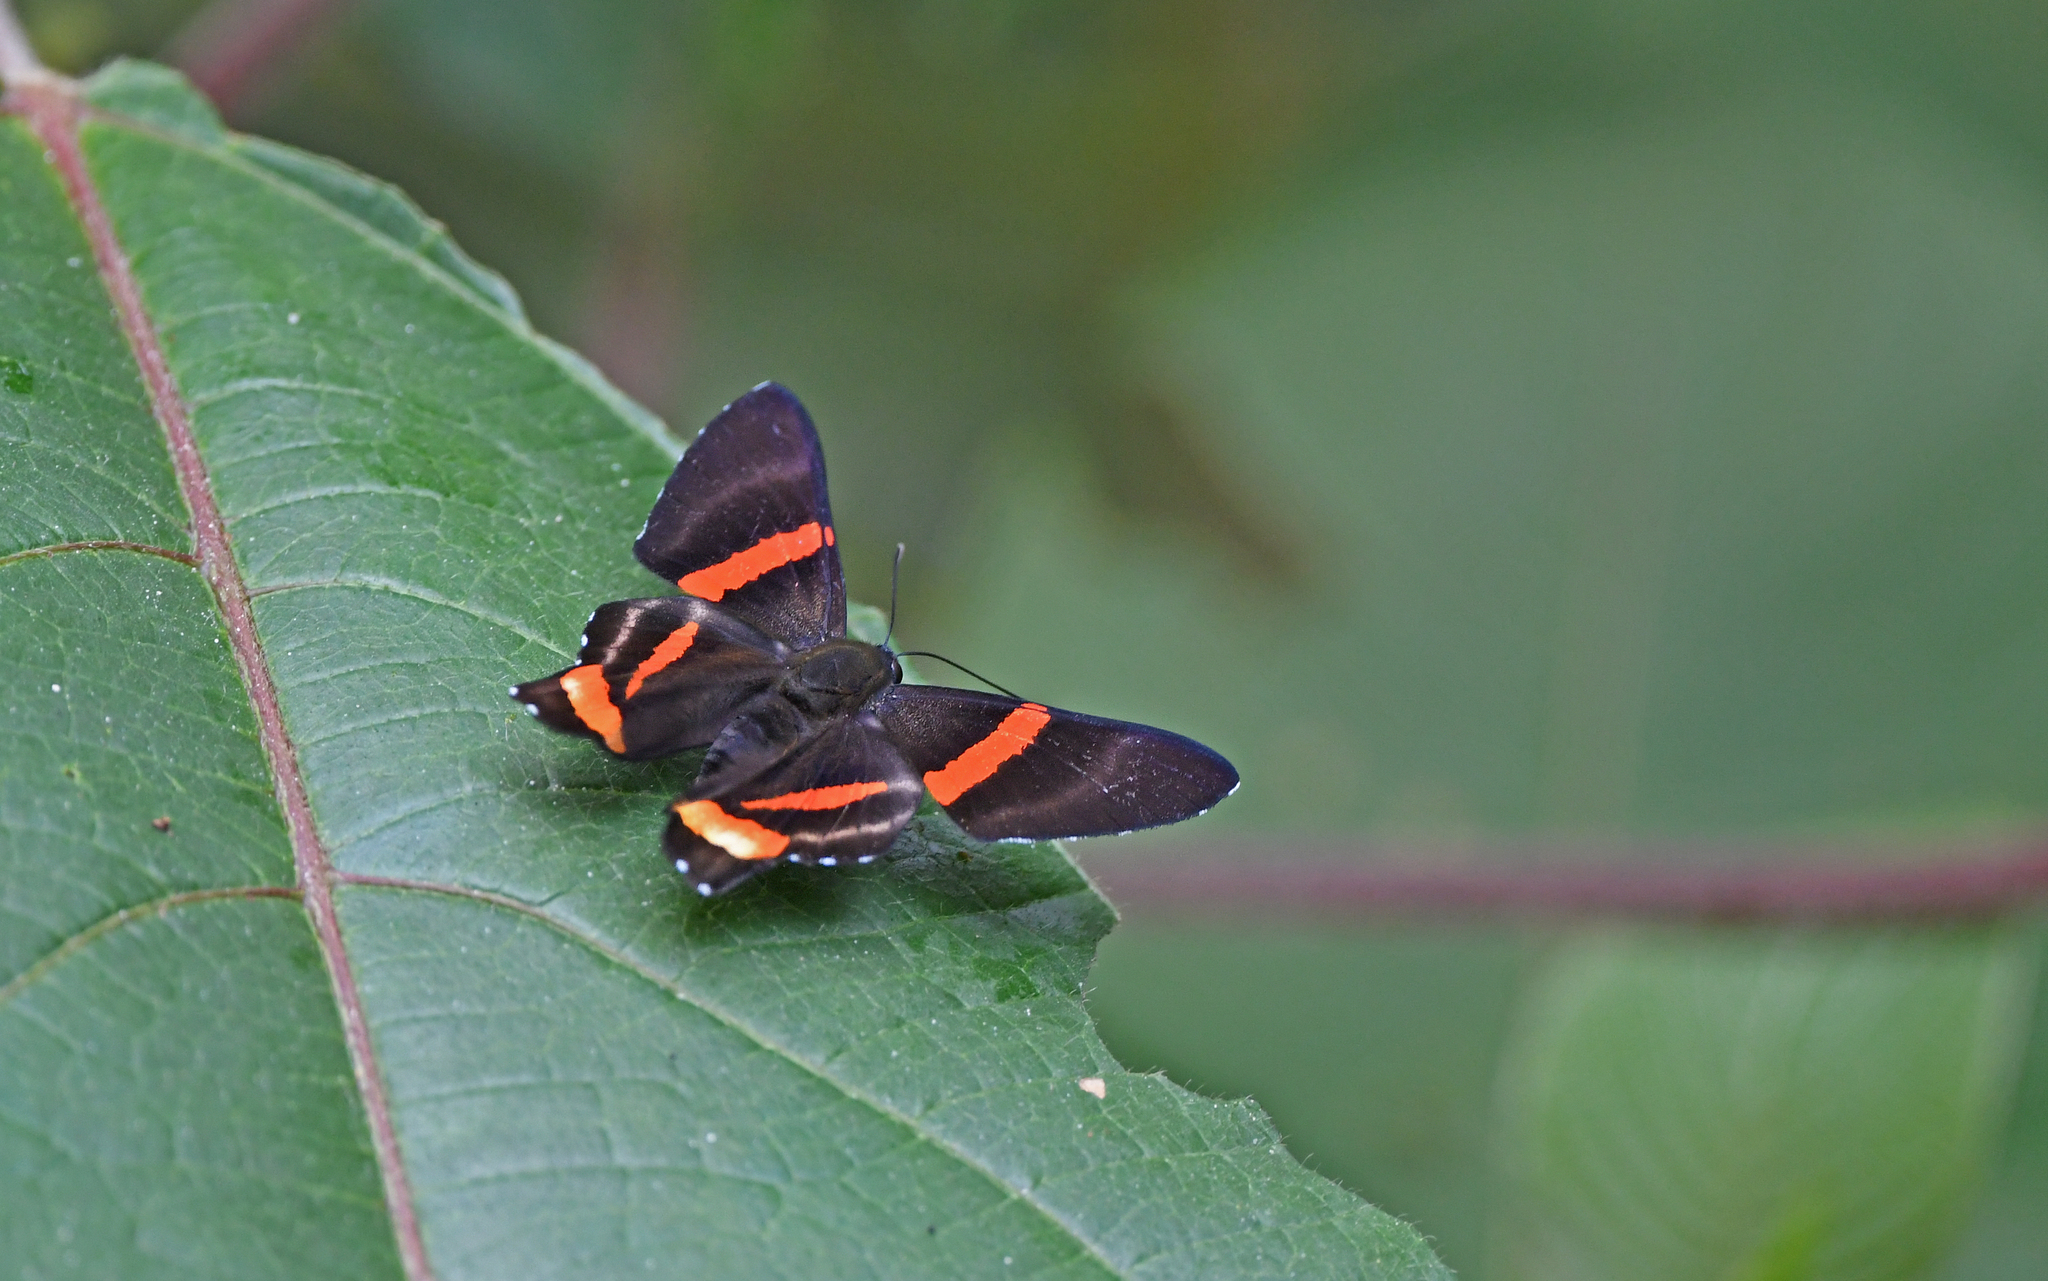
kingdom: Animalia
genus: Ancyluris
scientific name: Ancyluris colubra
